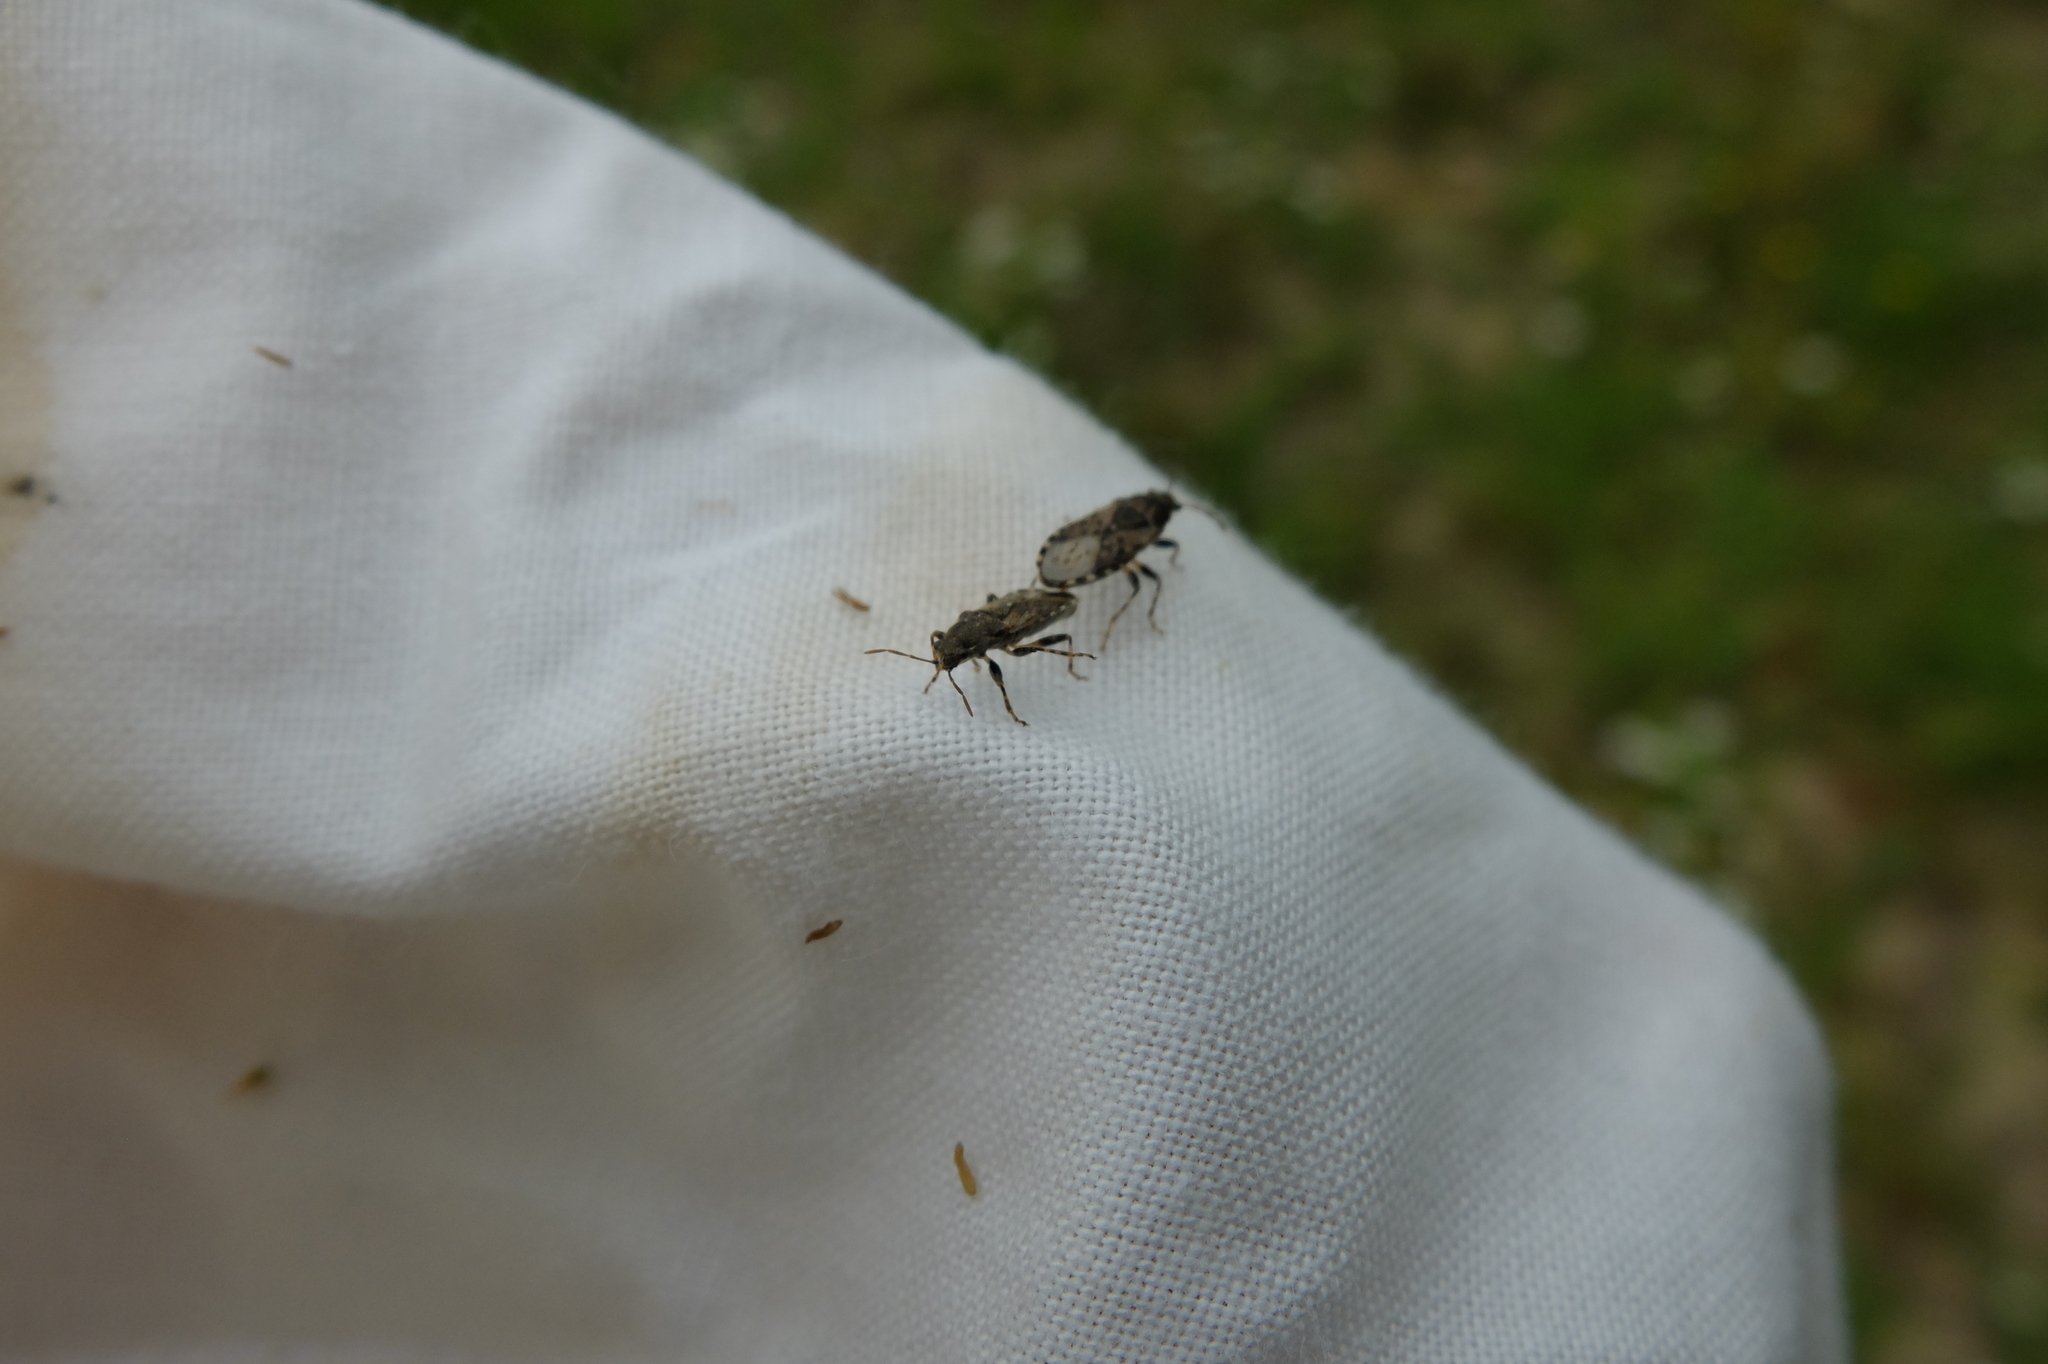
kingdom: Animalia
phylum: Arthropoda
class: Insecta
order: Hemiptera
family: Heterogastridae
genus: Heterogaster
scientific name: Heterogaster urticae
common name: Seed bug
